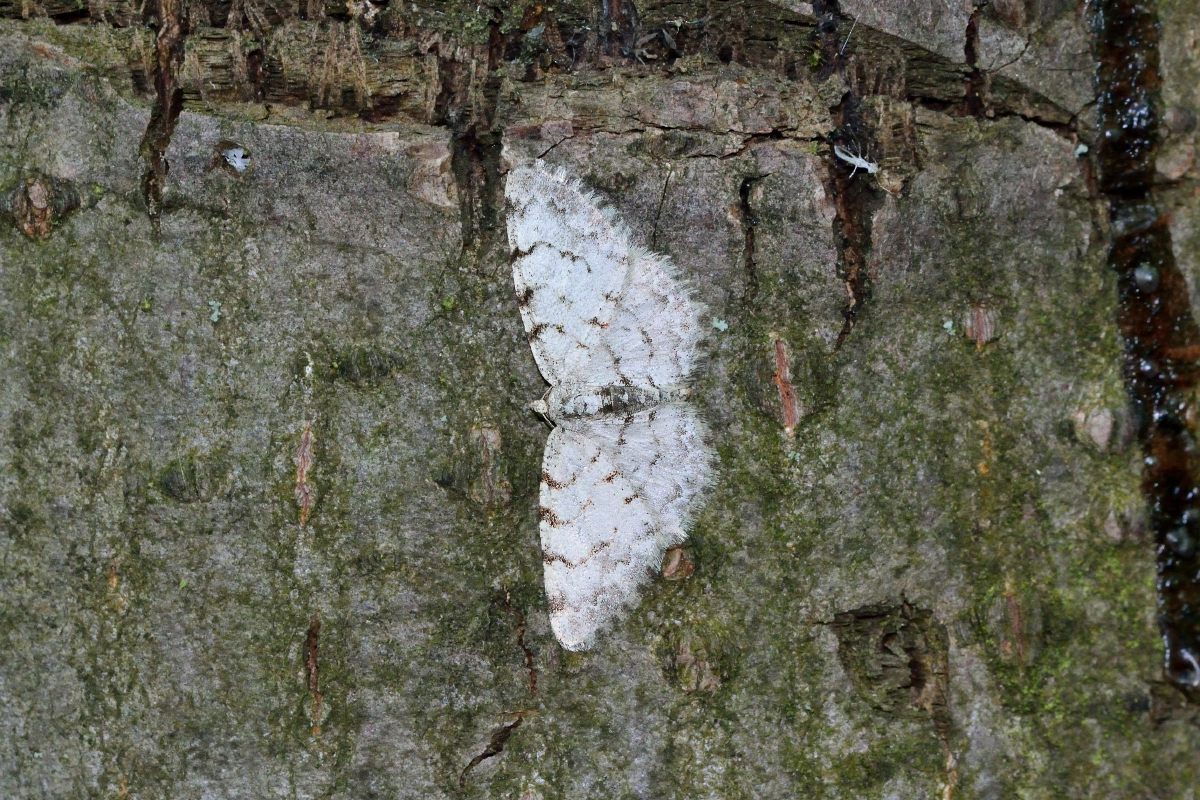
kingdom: Animalia
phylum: Arthropoda
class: Insecta
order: Lepidoptera
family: Geometridae
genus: Aethalura
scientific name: Aethalura punctulata
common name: Grey birch
